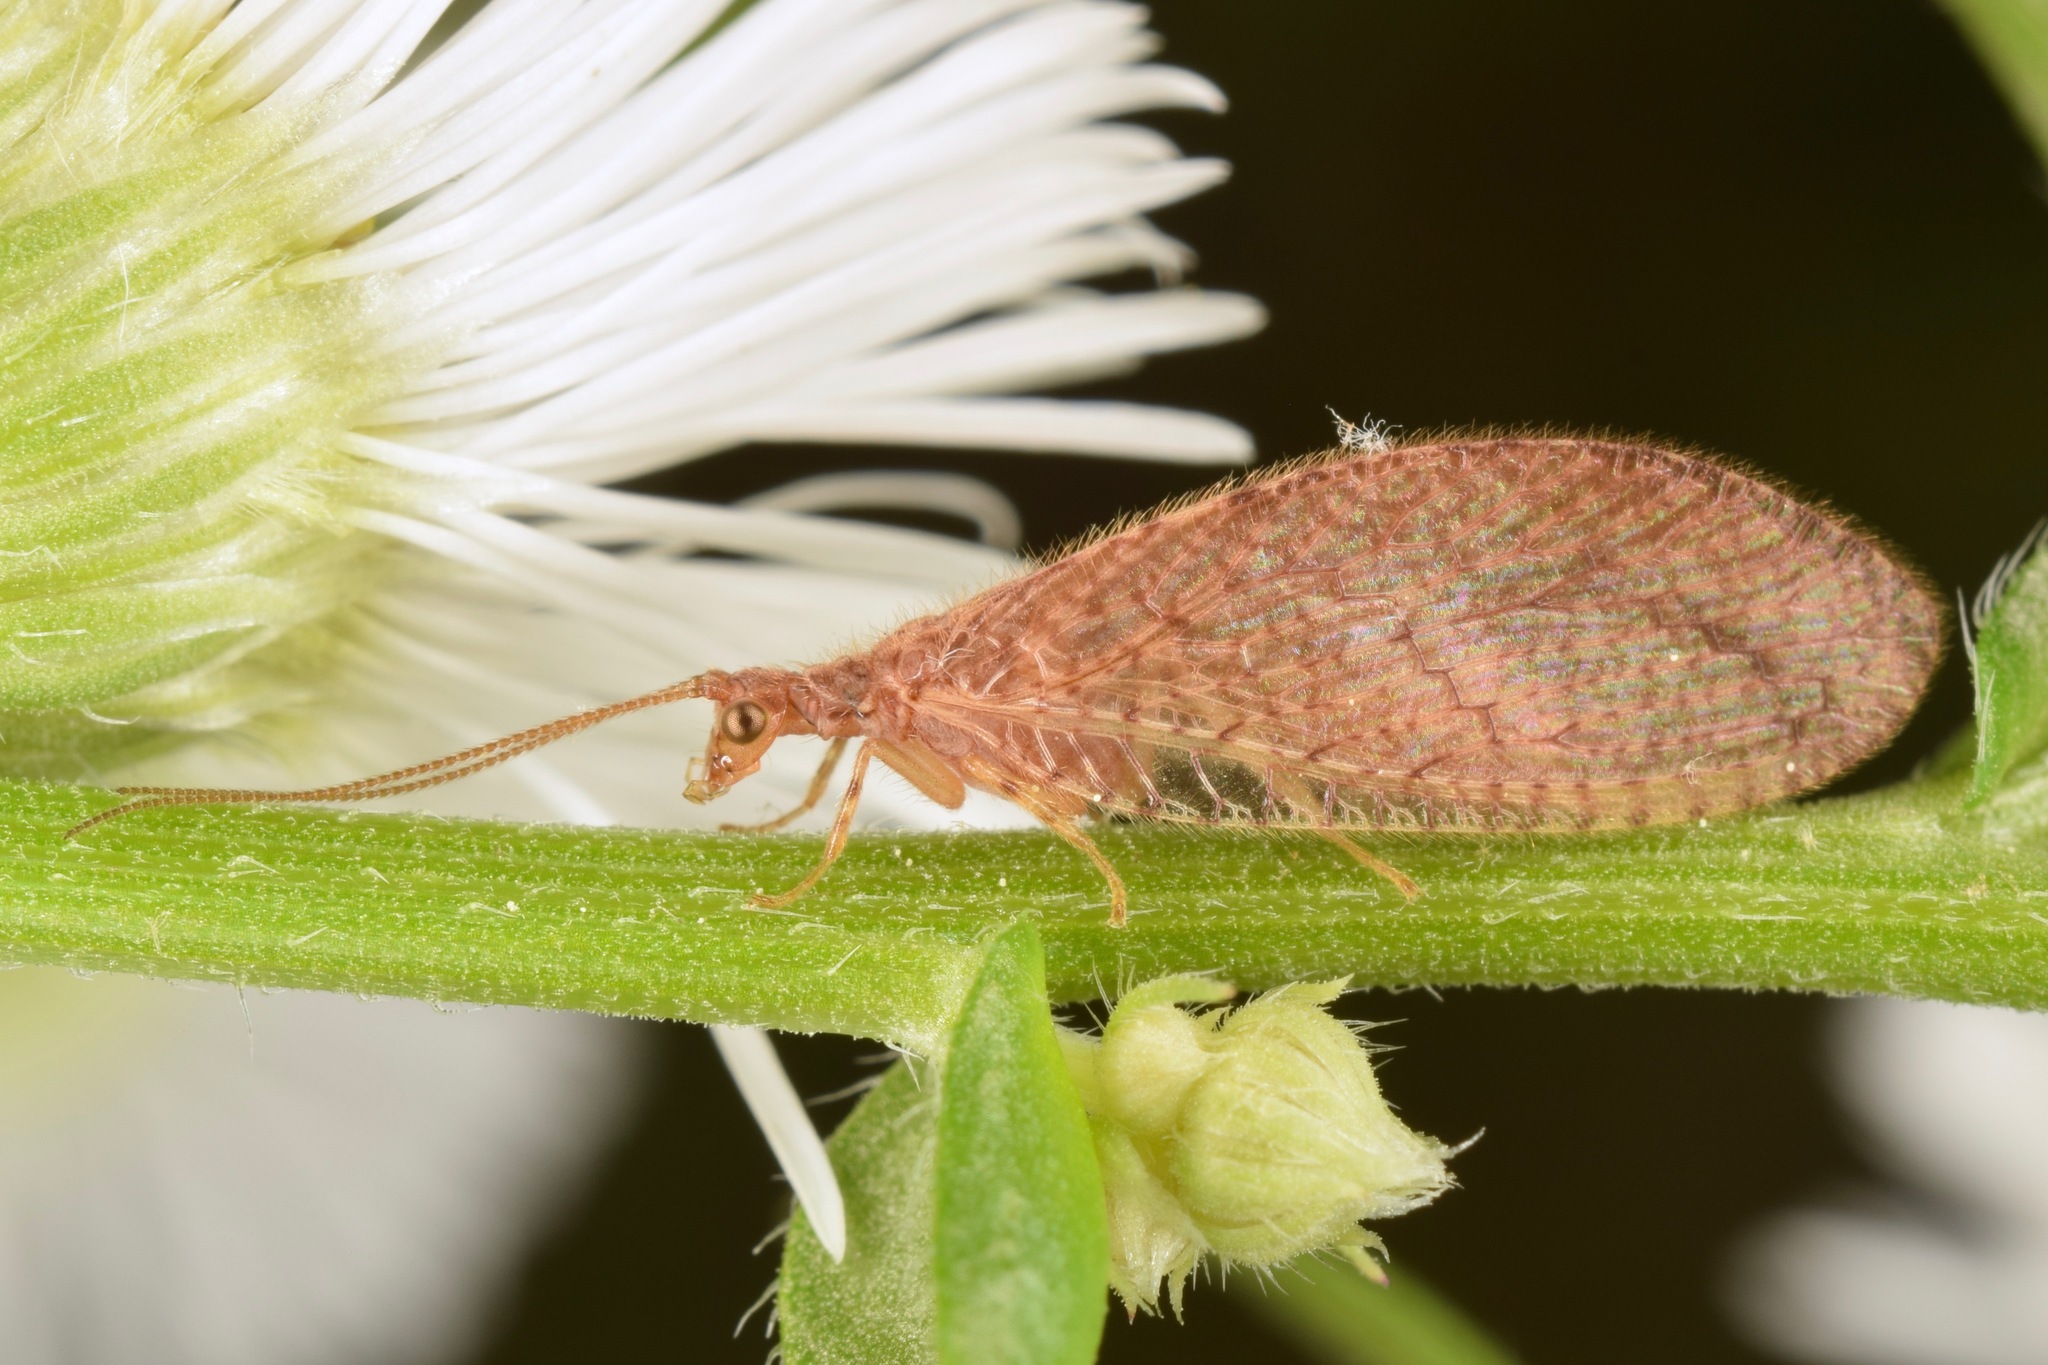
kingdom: Animalia
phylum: Arthropoda
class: Insecta
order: Neuroptera
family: Hemerobiidae
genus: Micromus
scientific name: Micromus posticus
